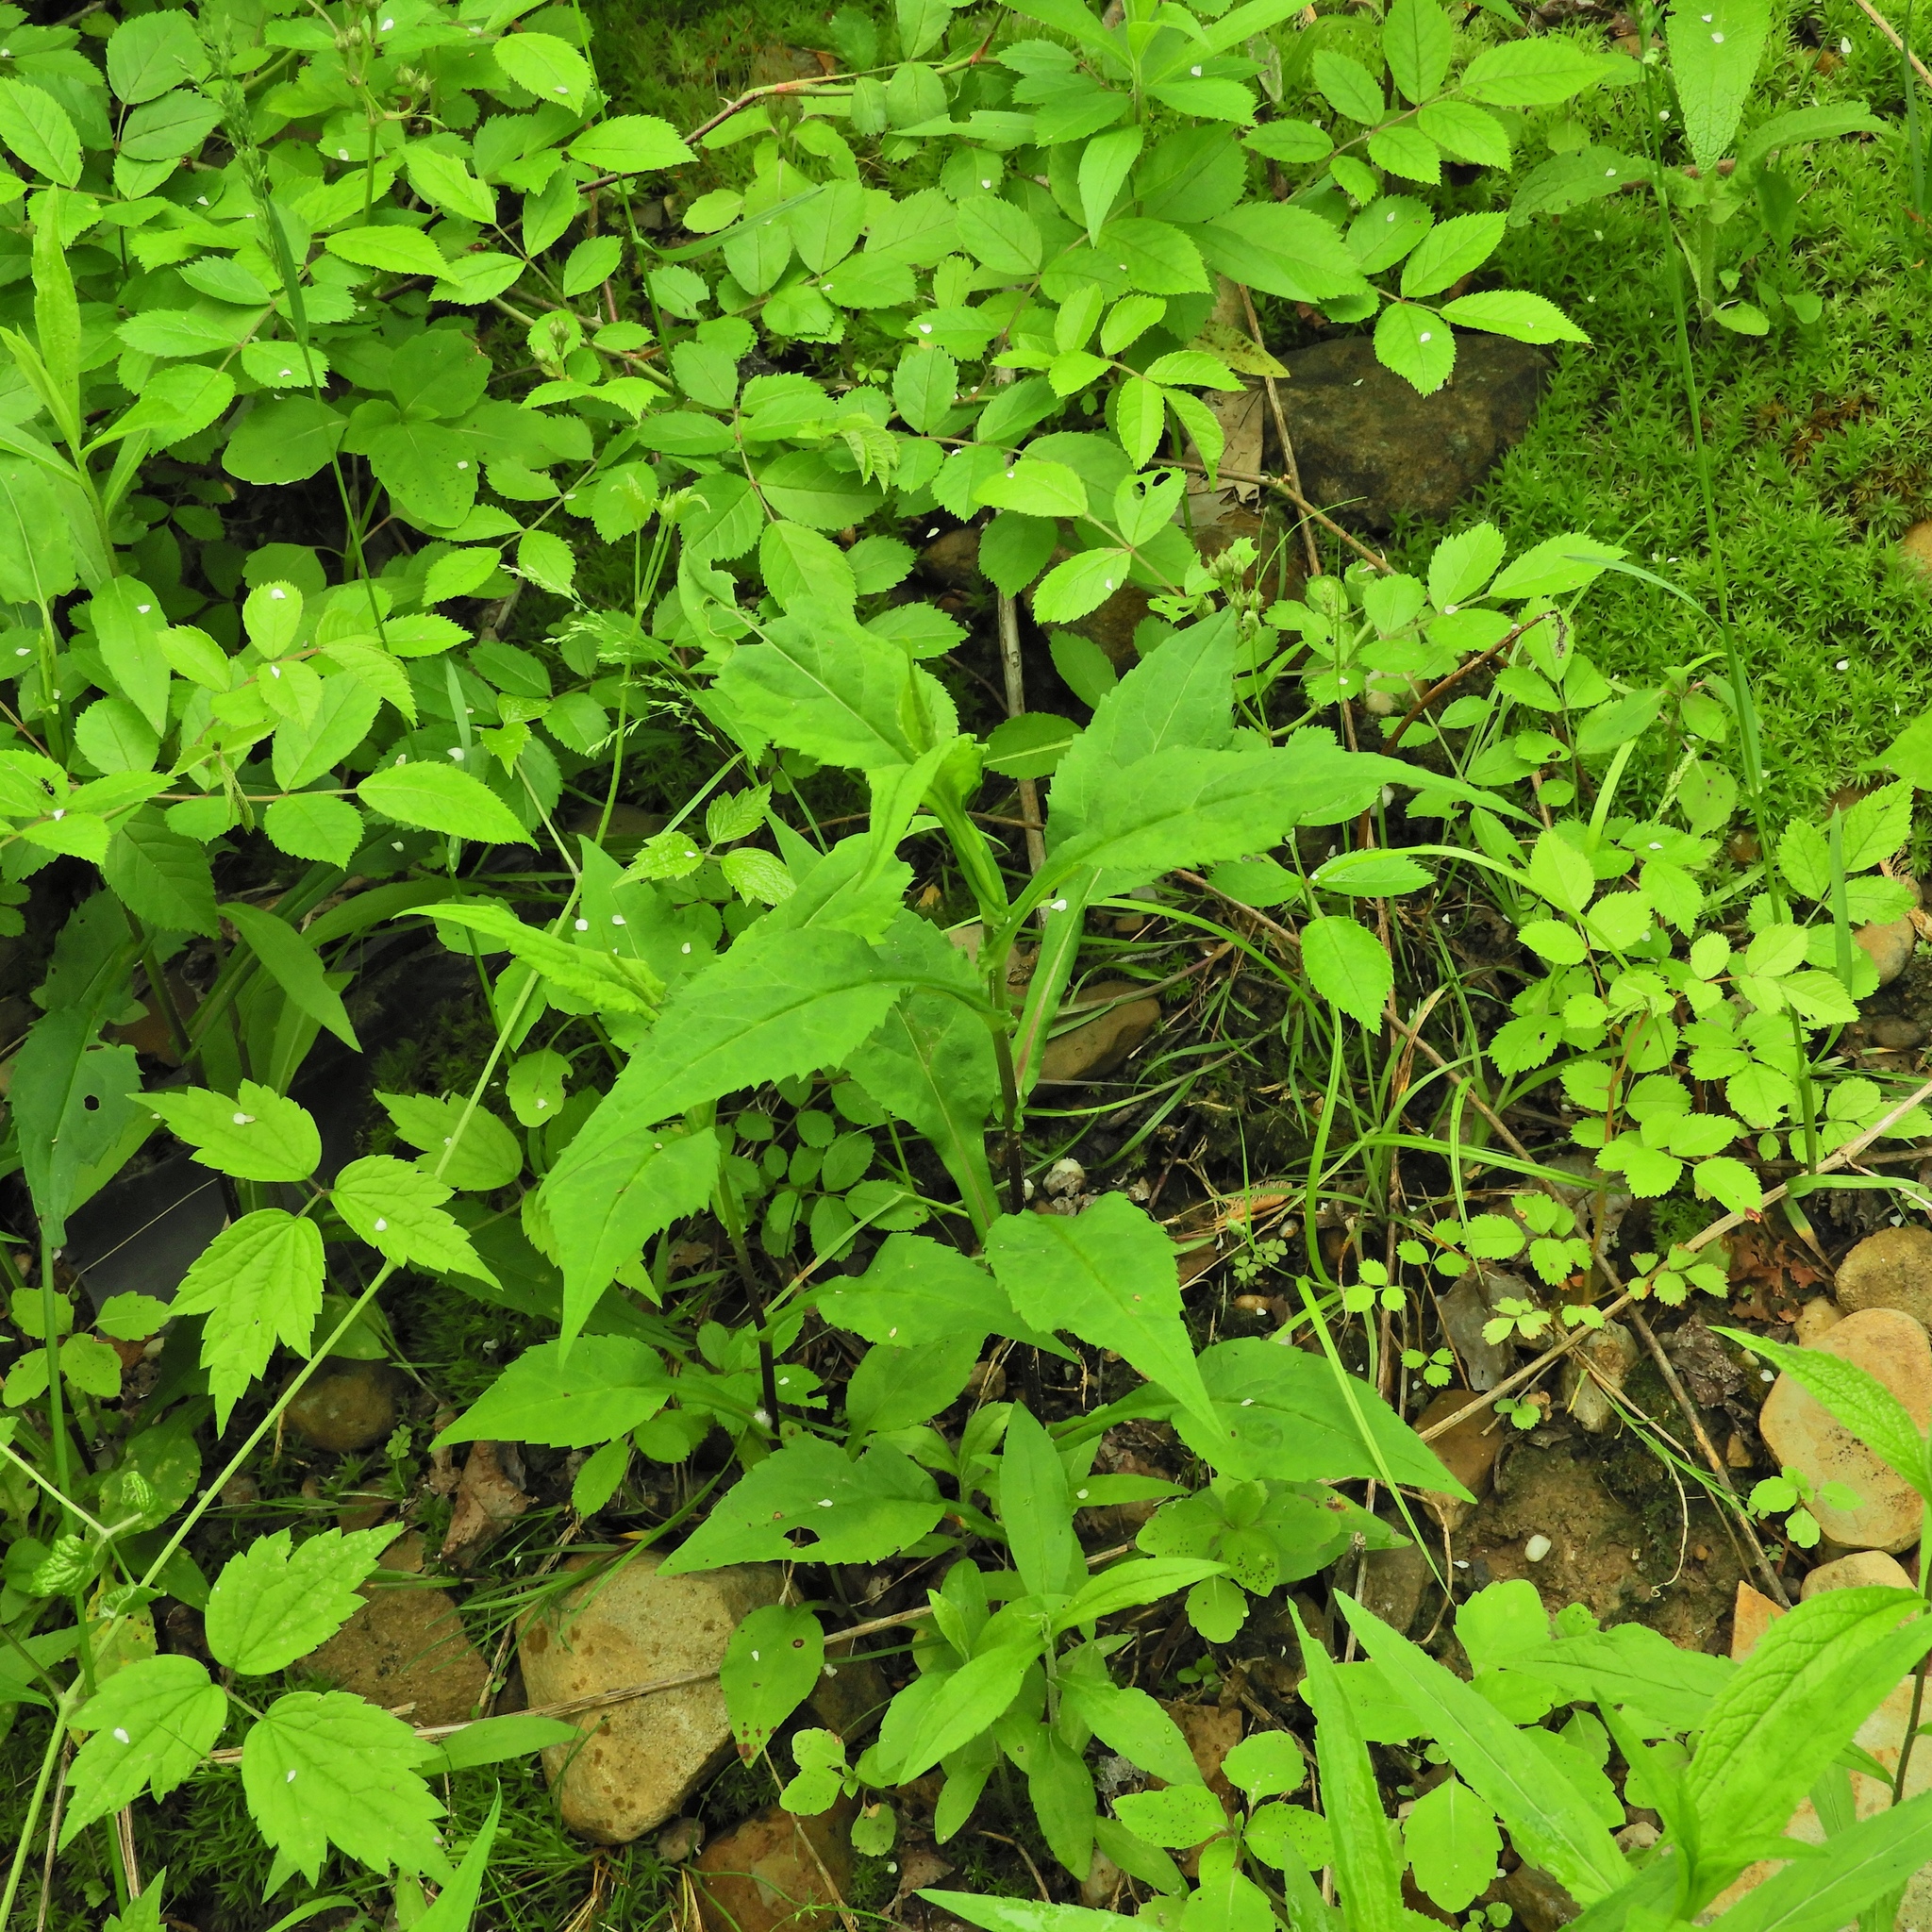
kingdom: Plantae
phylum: Tracheophyta
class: Magnoliopsida
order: Asterales
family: Asteraceae
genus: Symphyotrichum
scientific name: Symphyotrichum prenanthoides
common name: Crooked-stem aster
